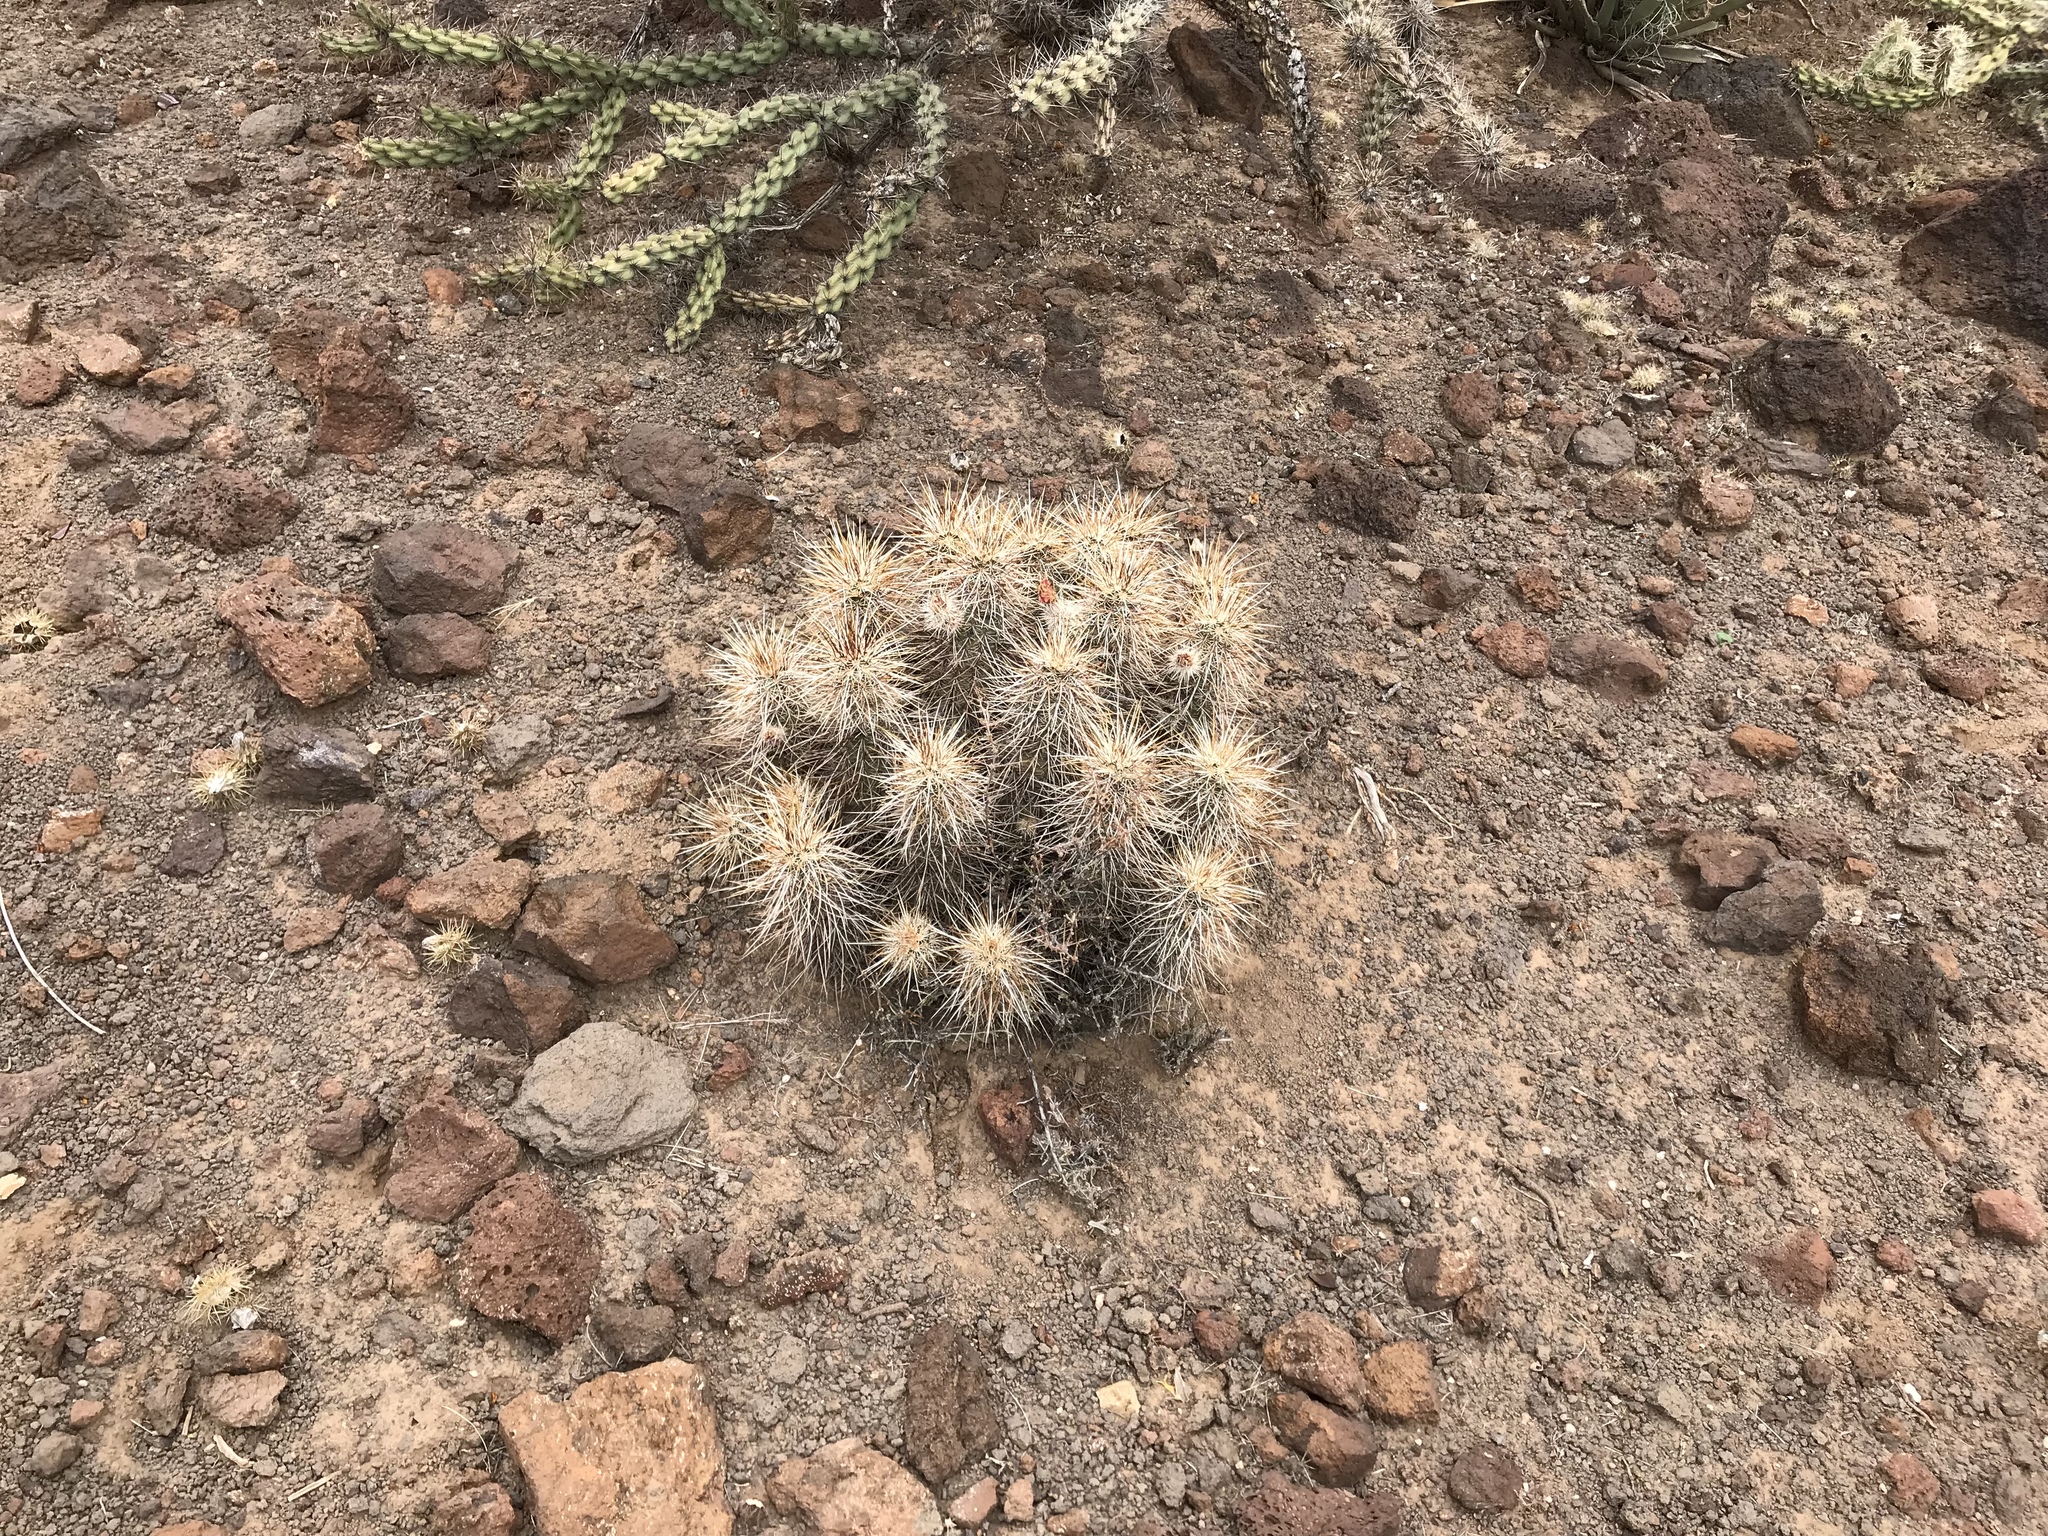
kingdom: Plantae
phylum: Tracheophyta
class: Magnoliopsida
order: Caryophyllales
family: Cactaceae
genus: Echinocereus
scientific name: Echinocereus engelmannii
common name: Engelmann's hedgehog cactus
